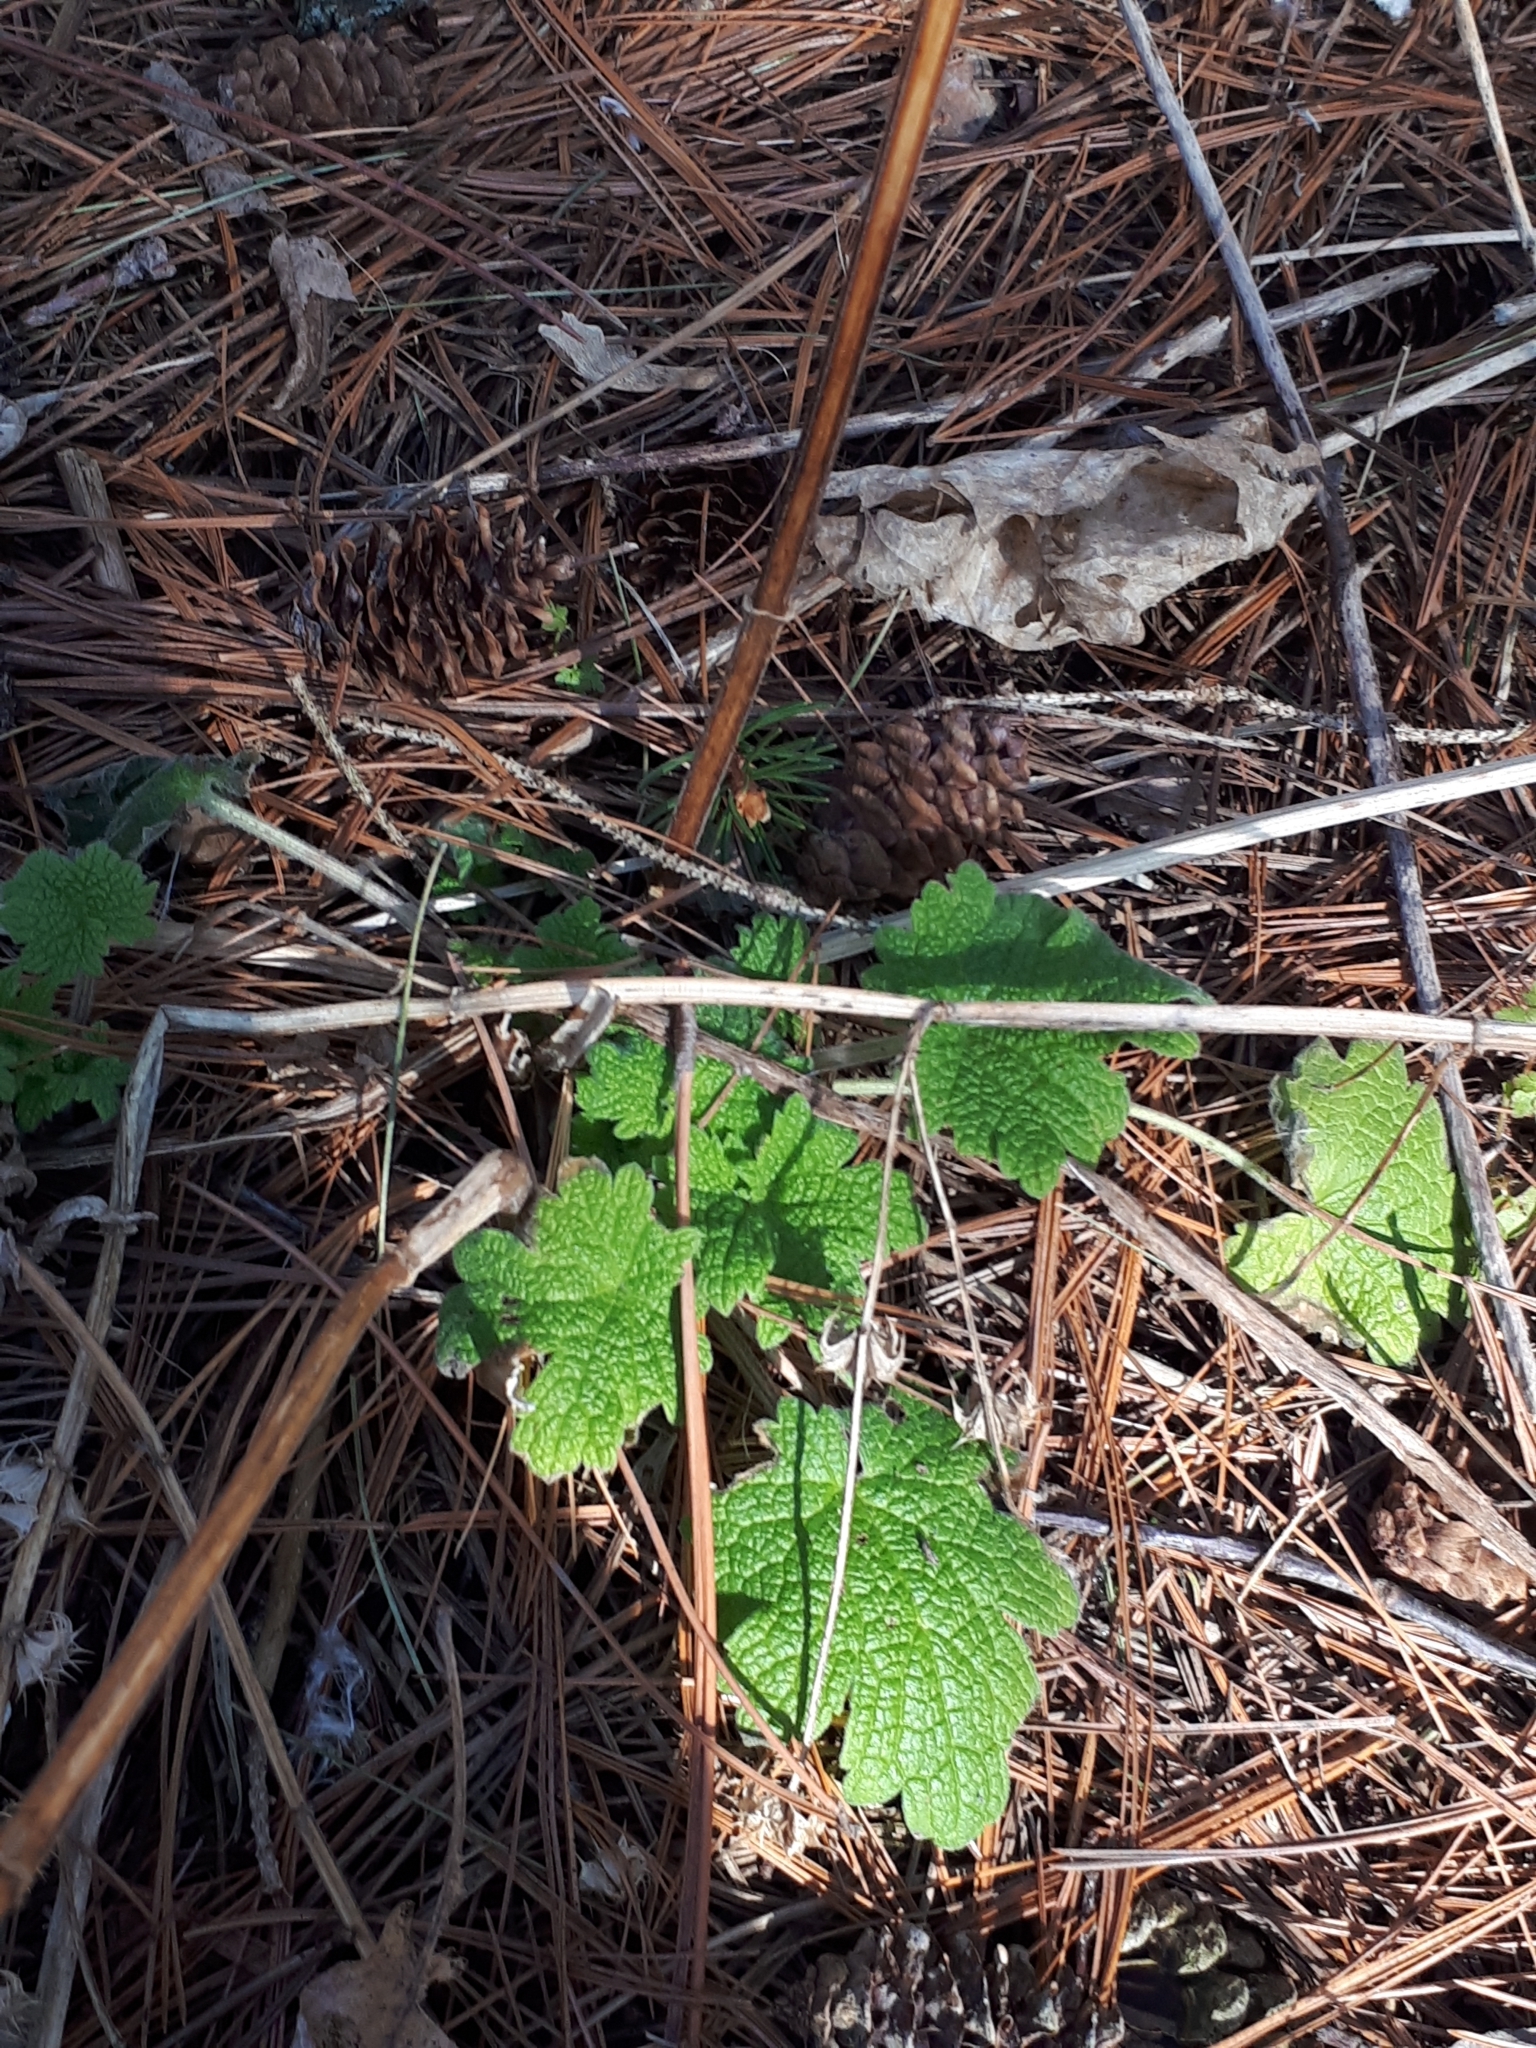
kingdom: Plantae
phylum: Tracheophyta
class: Magnoliopsida
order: Lamiales
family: Lamiaceae
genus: Leonurus
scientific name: Leonurus cardiaca
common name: Motherwort
